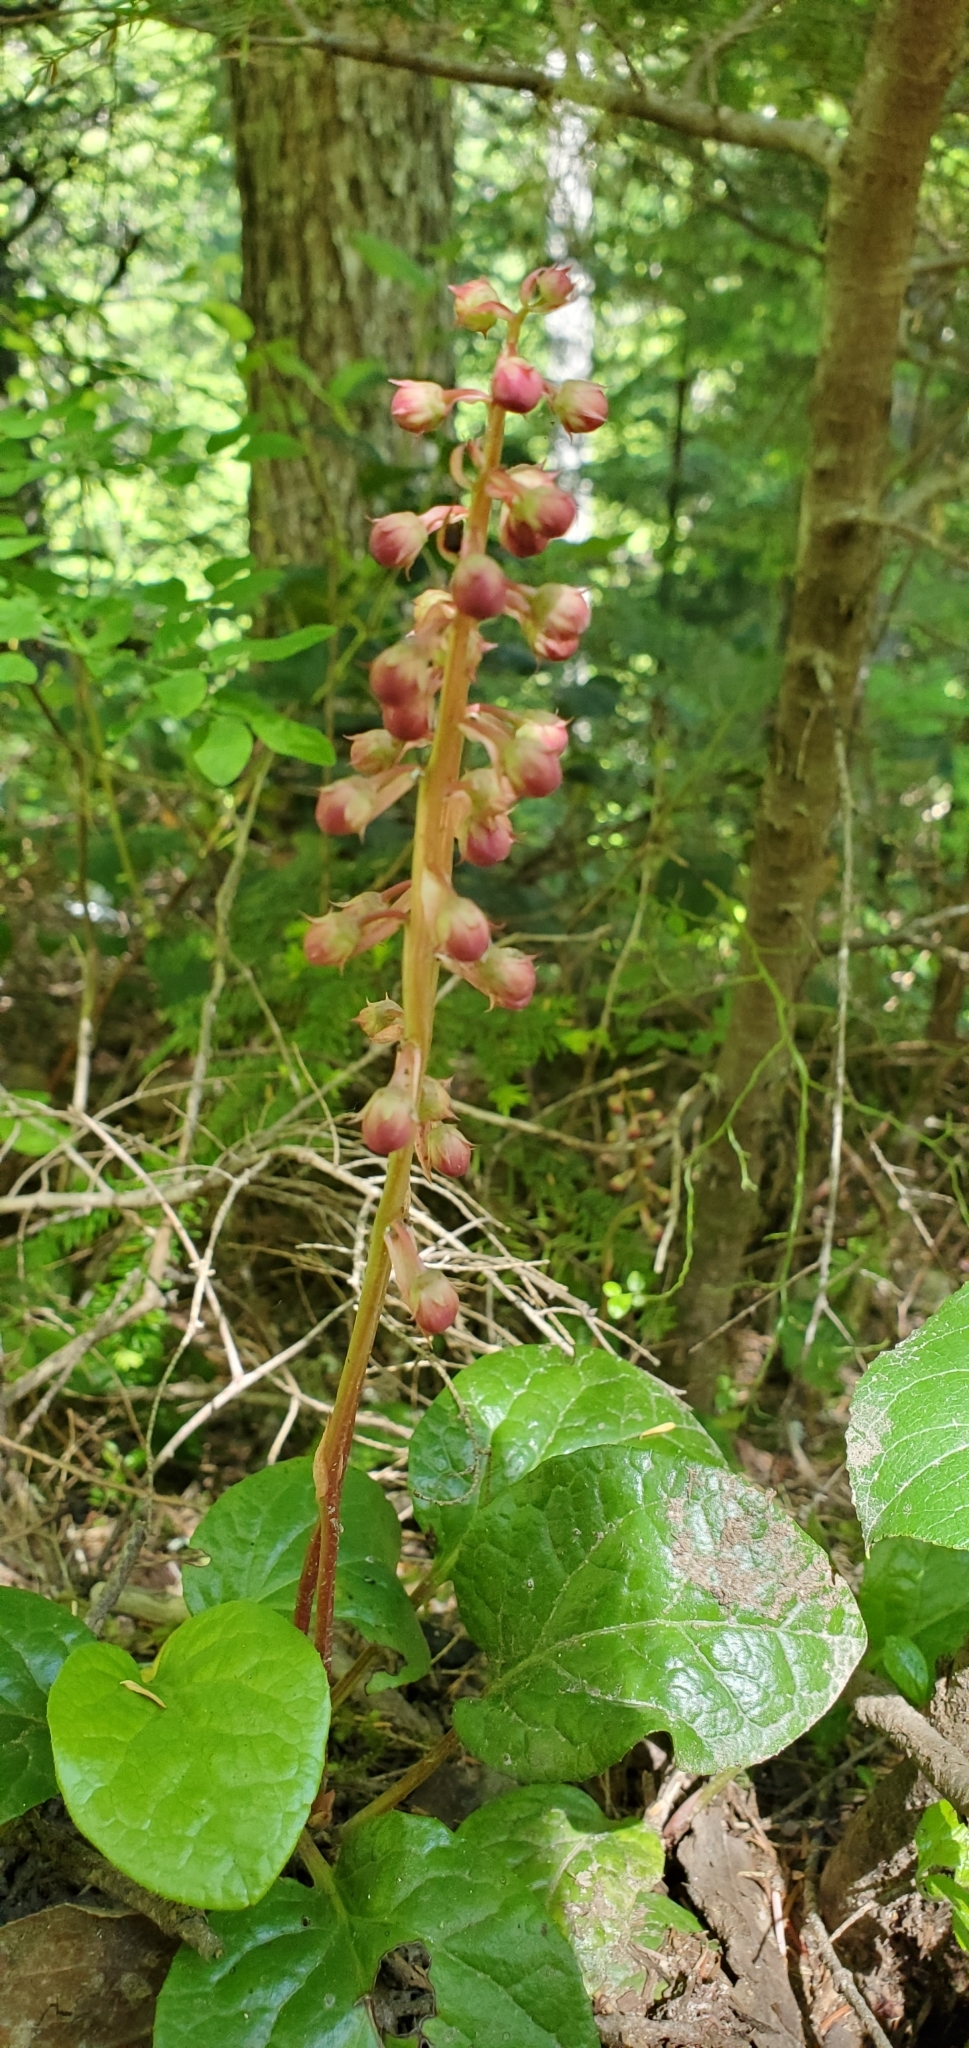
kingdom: Plantae
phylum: Tracheophyta
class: Magnoliopsida
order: Ericales
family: Ericaceae
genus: Pyrola
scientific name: Pyrola asarifolia
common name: Bog wintergreen
